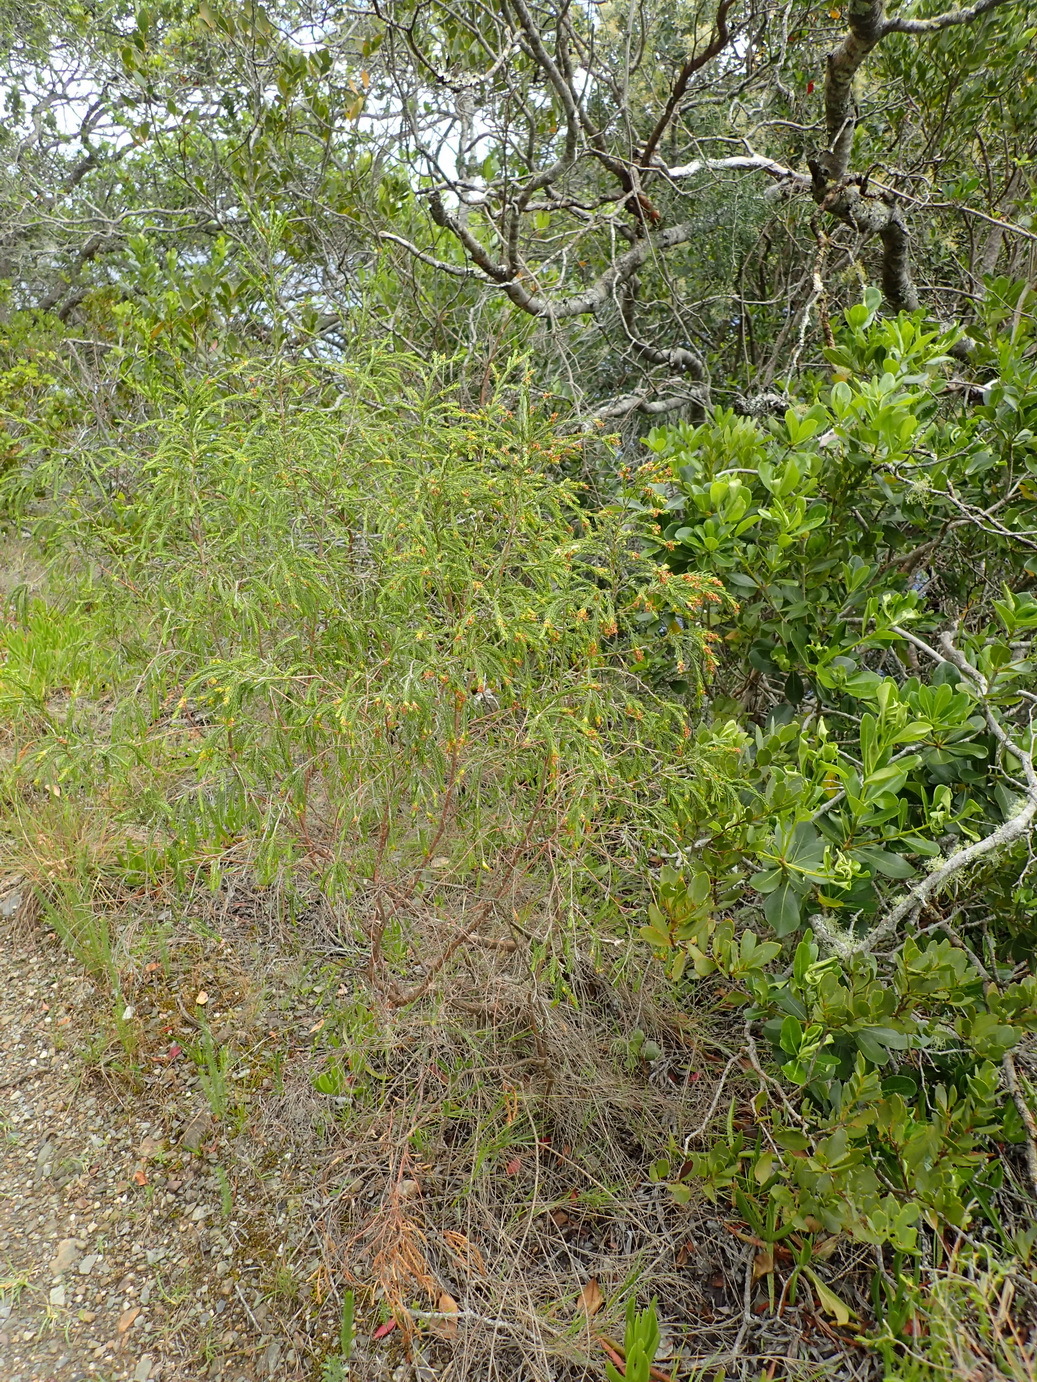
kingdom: Plantae
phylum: Tracheophyta
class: Magnoliopsida
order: Malvales
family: Thymelaeaceae
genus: Passerina
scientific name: Passerina falcifolia
